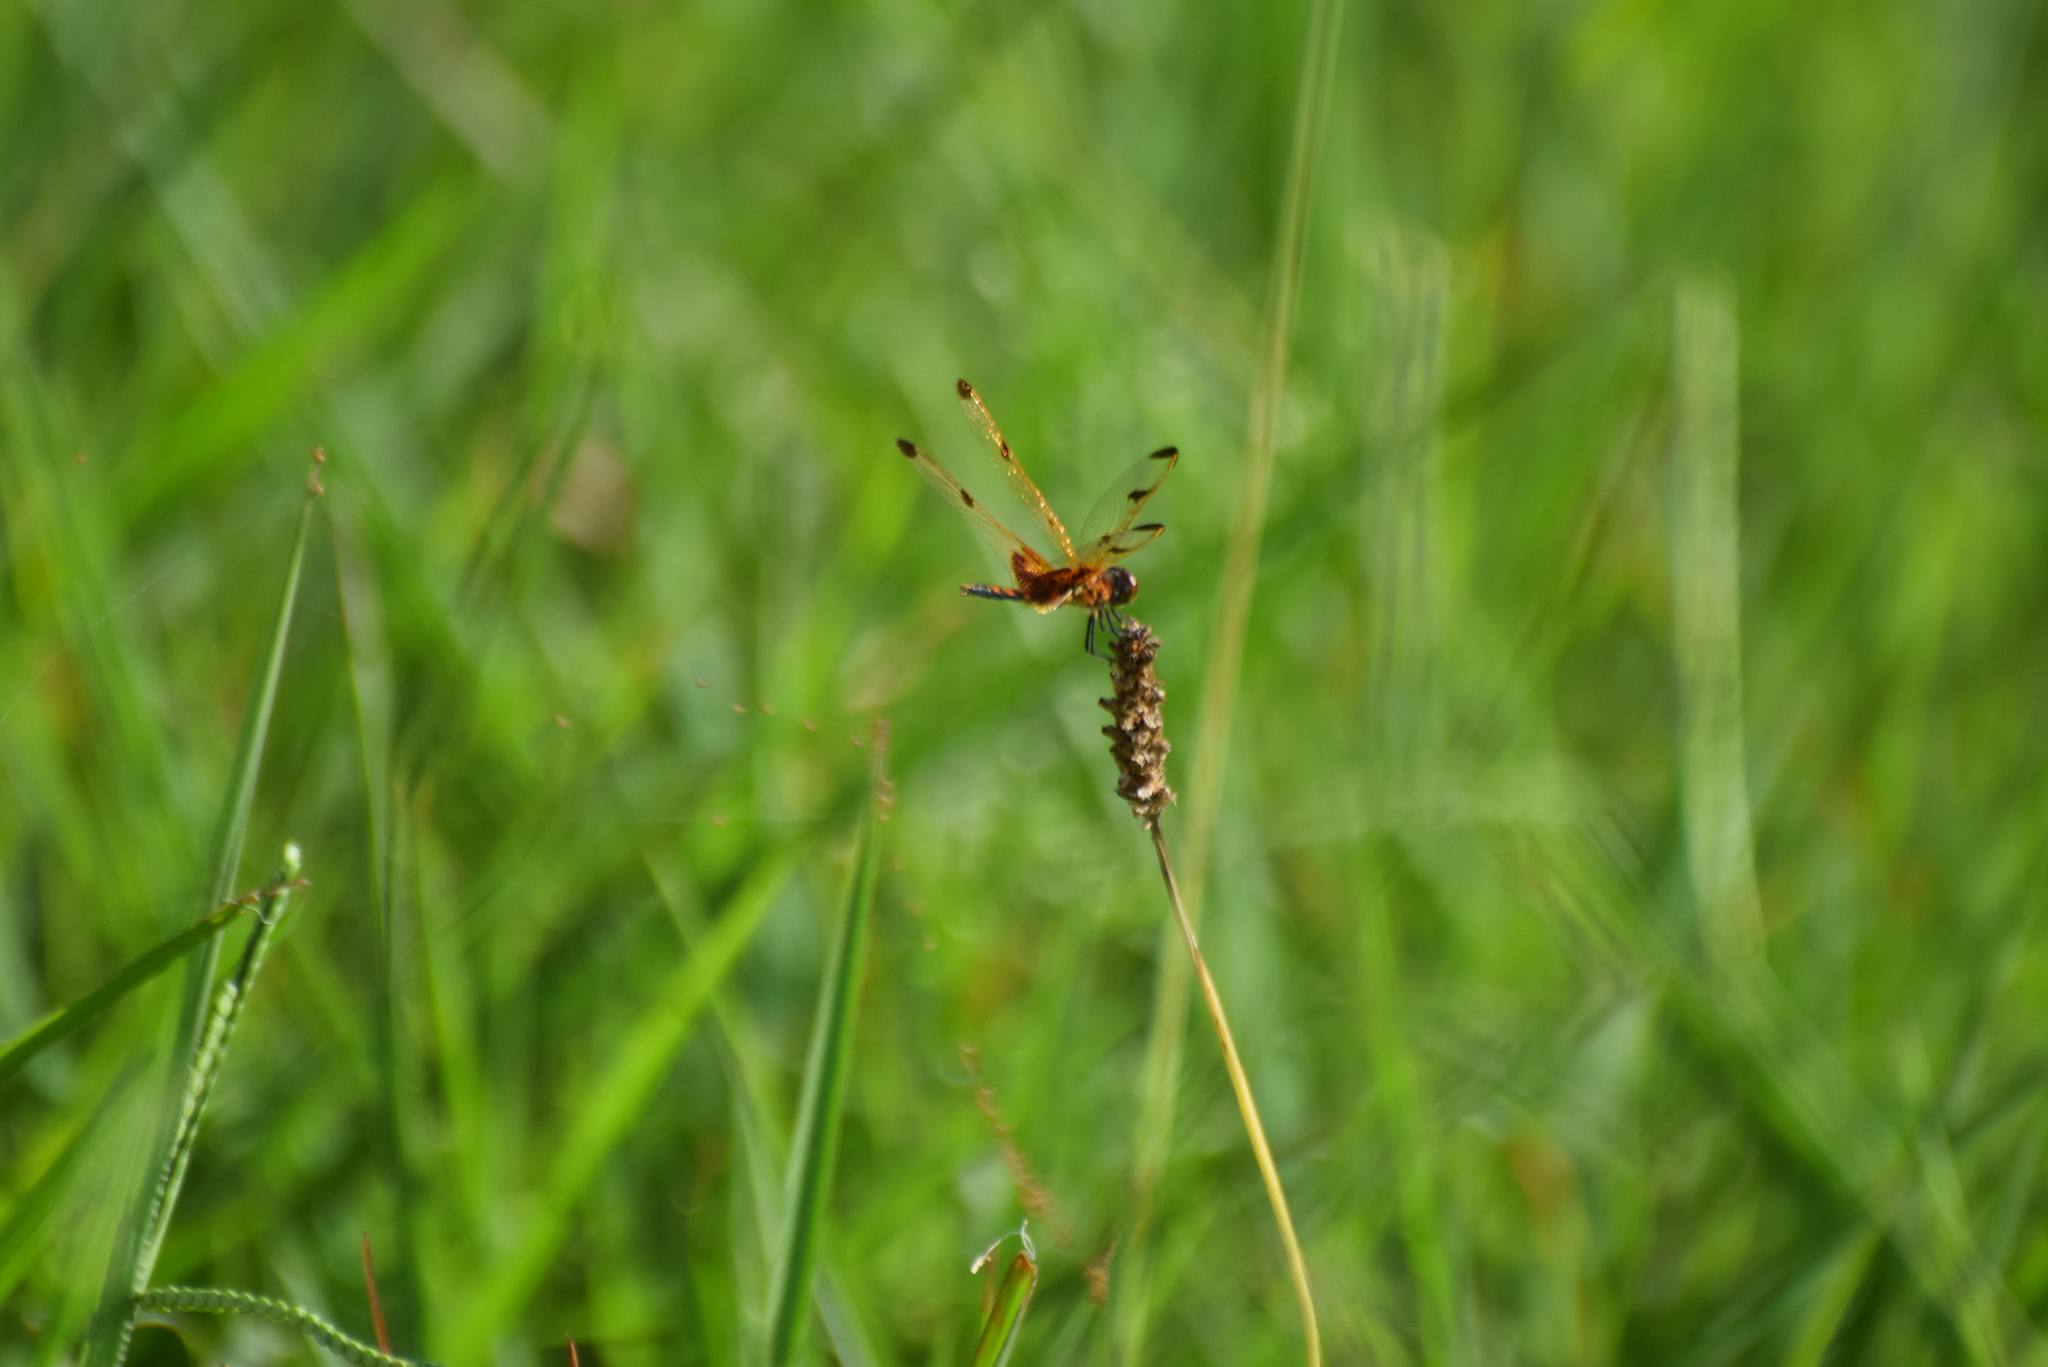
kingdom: Animalia
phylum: Arthropoda
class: Insecta
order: Odonata
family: Libellulidae
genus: Celithemis
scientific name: Celithemis elisa
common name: Calico pennant
